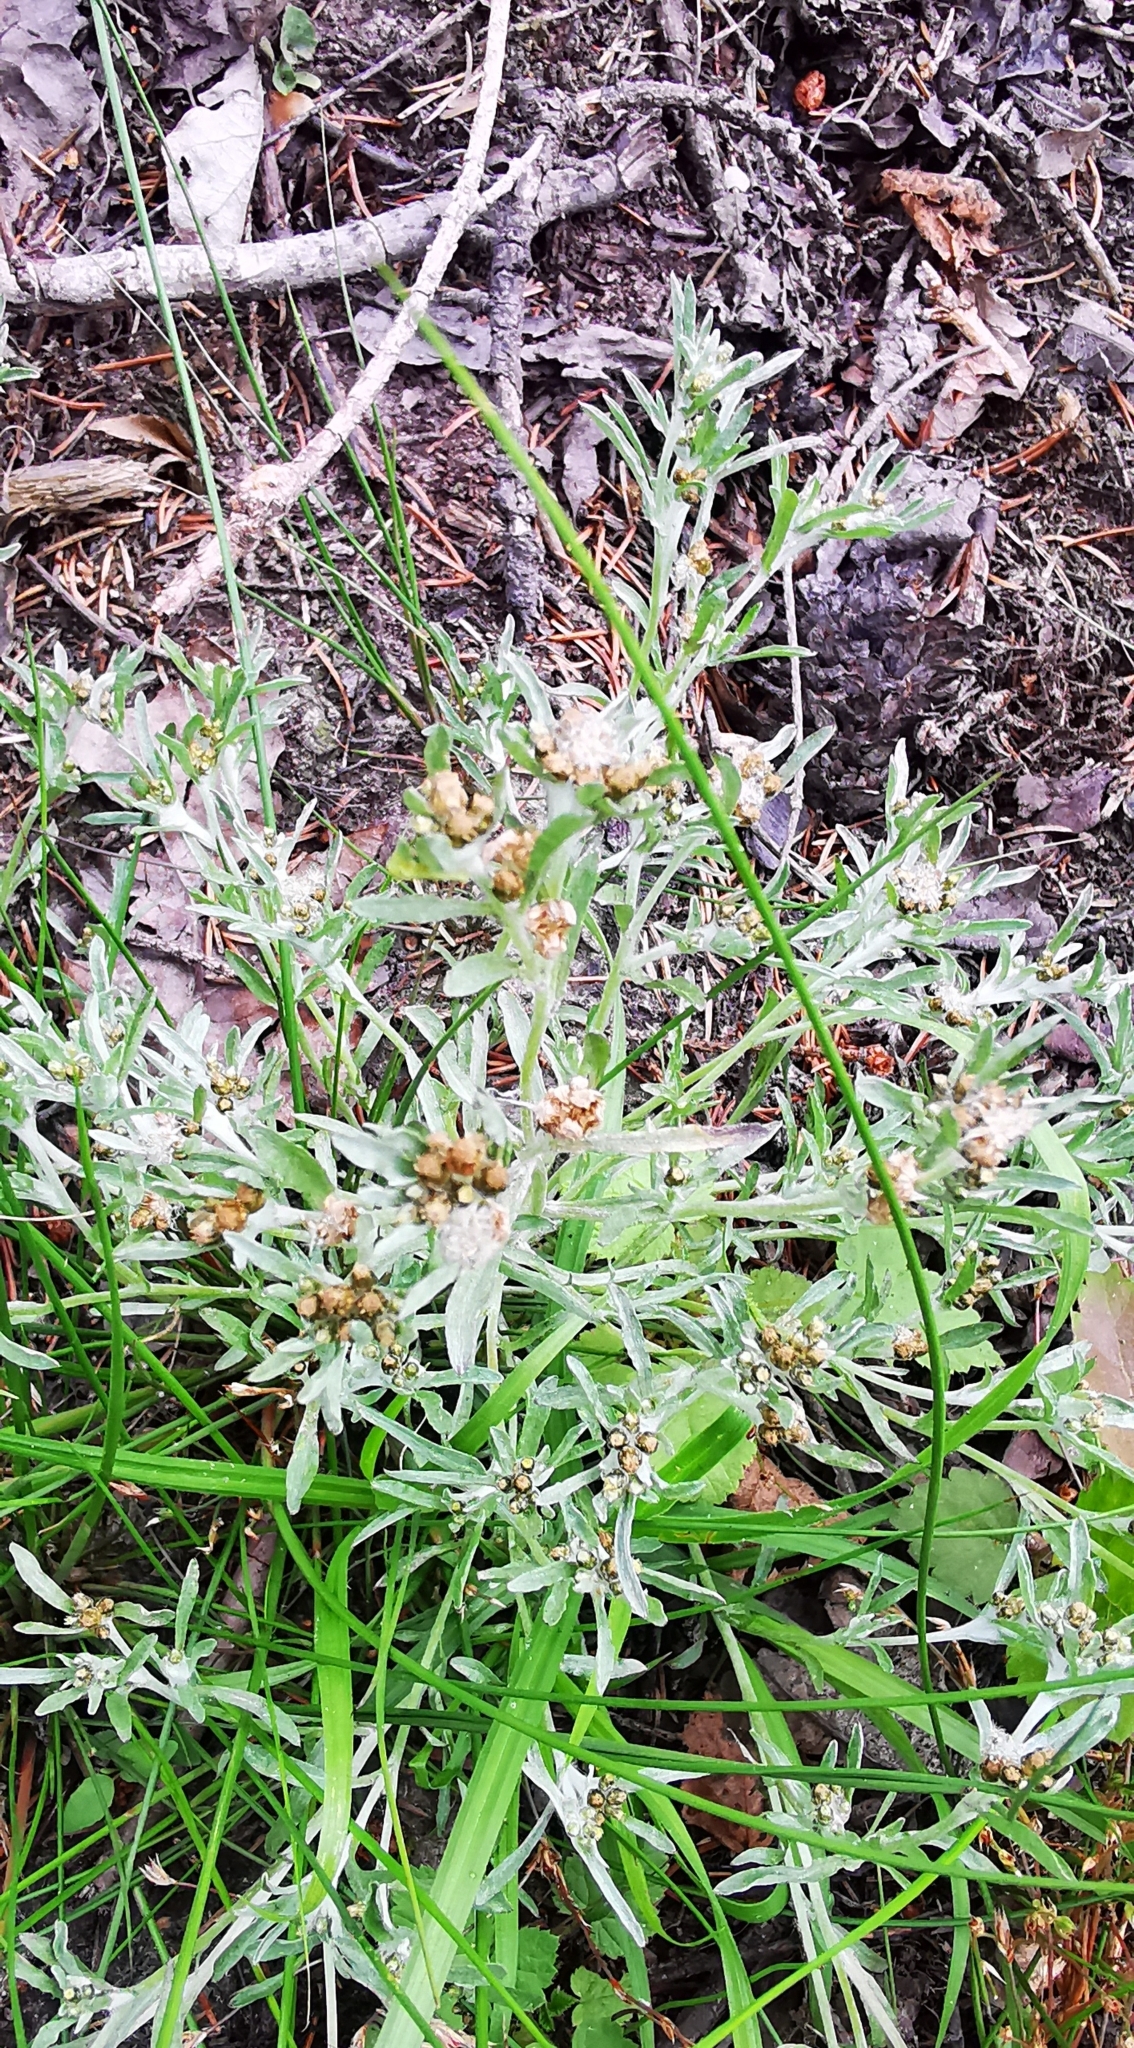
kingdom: Plantae
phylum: Tracheophyta
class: Magnoliopsida
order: Asterales
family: Asteraceae
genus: Gnaphalium
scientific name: Gnaphalium uliginosum
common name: Marsh cudweed
